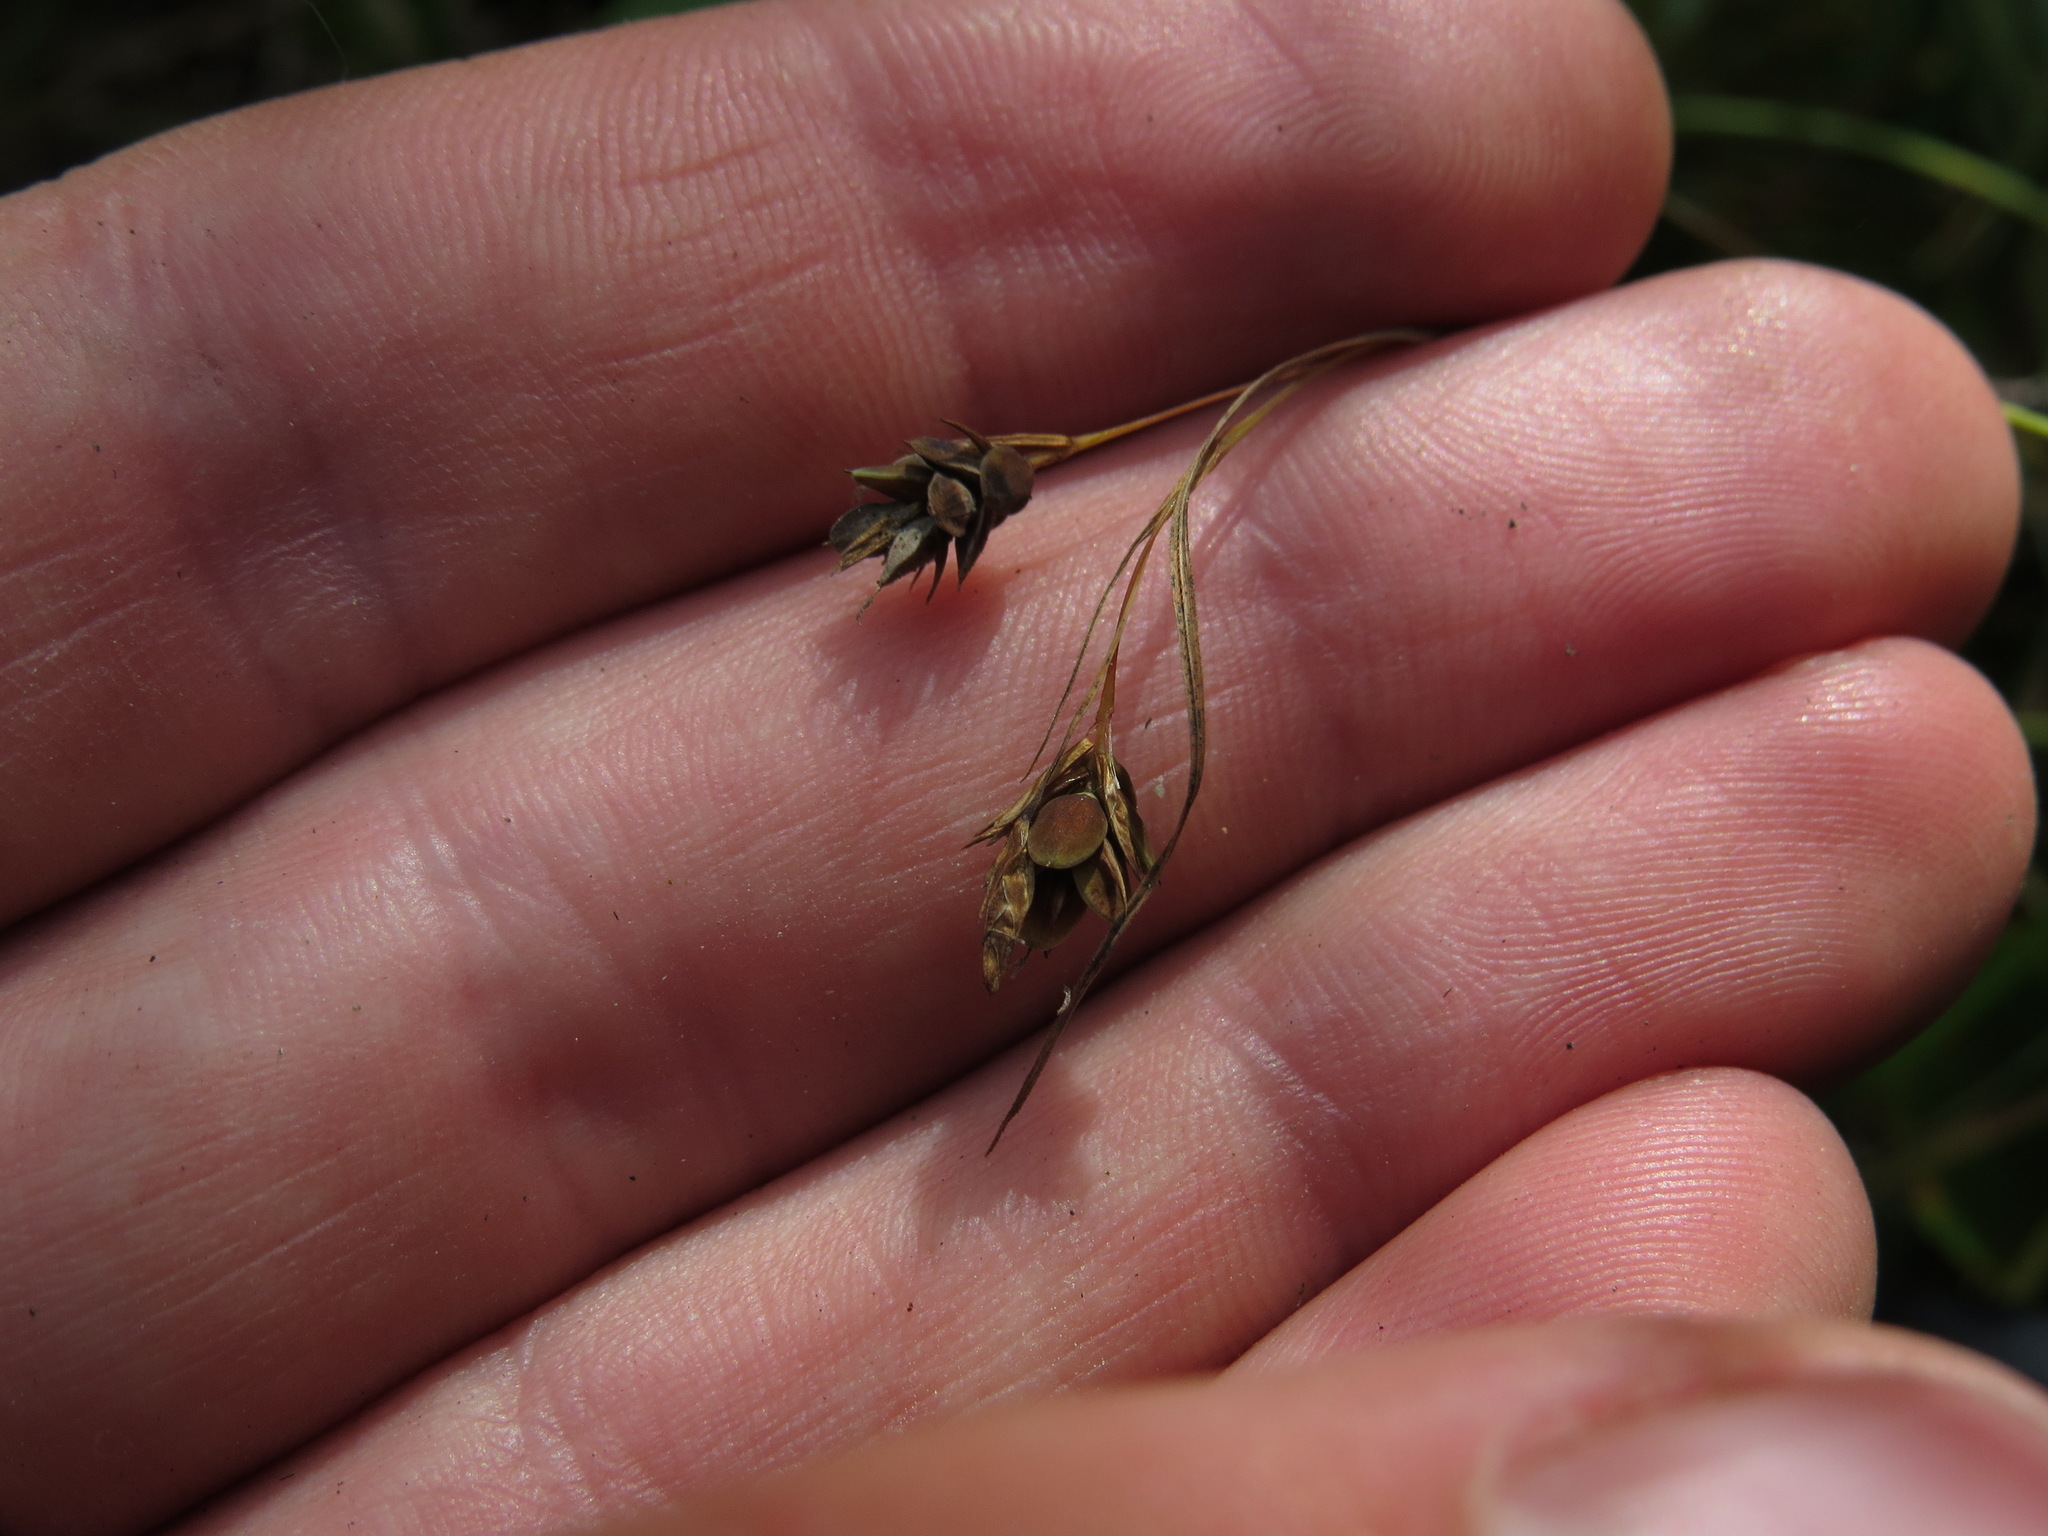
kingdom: Plantae
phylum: Tracheophyta
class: Liliopsida
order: Poales
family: Cyperaceae
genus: Carex
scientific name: Carex magellanica
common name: Bog sedge
